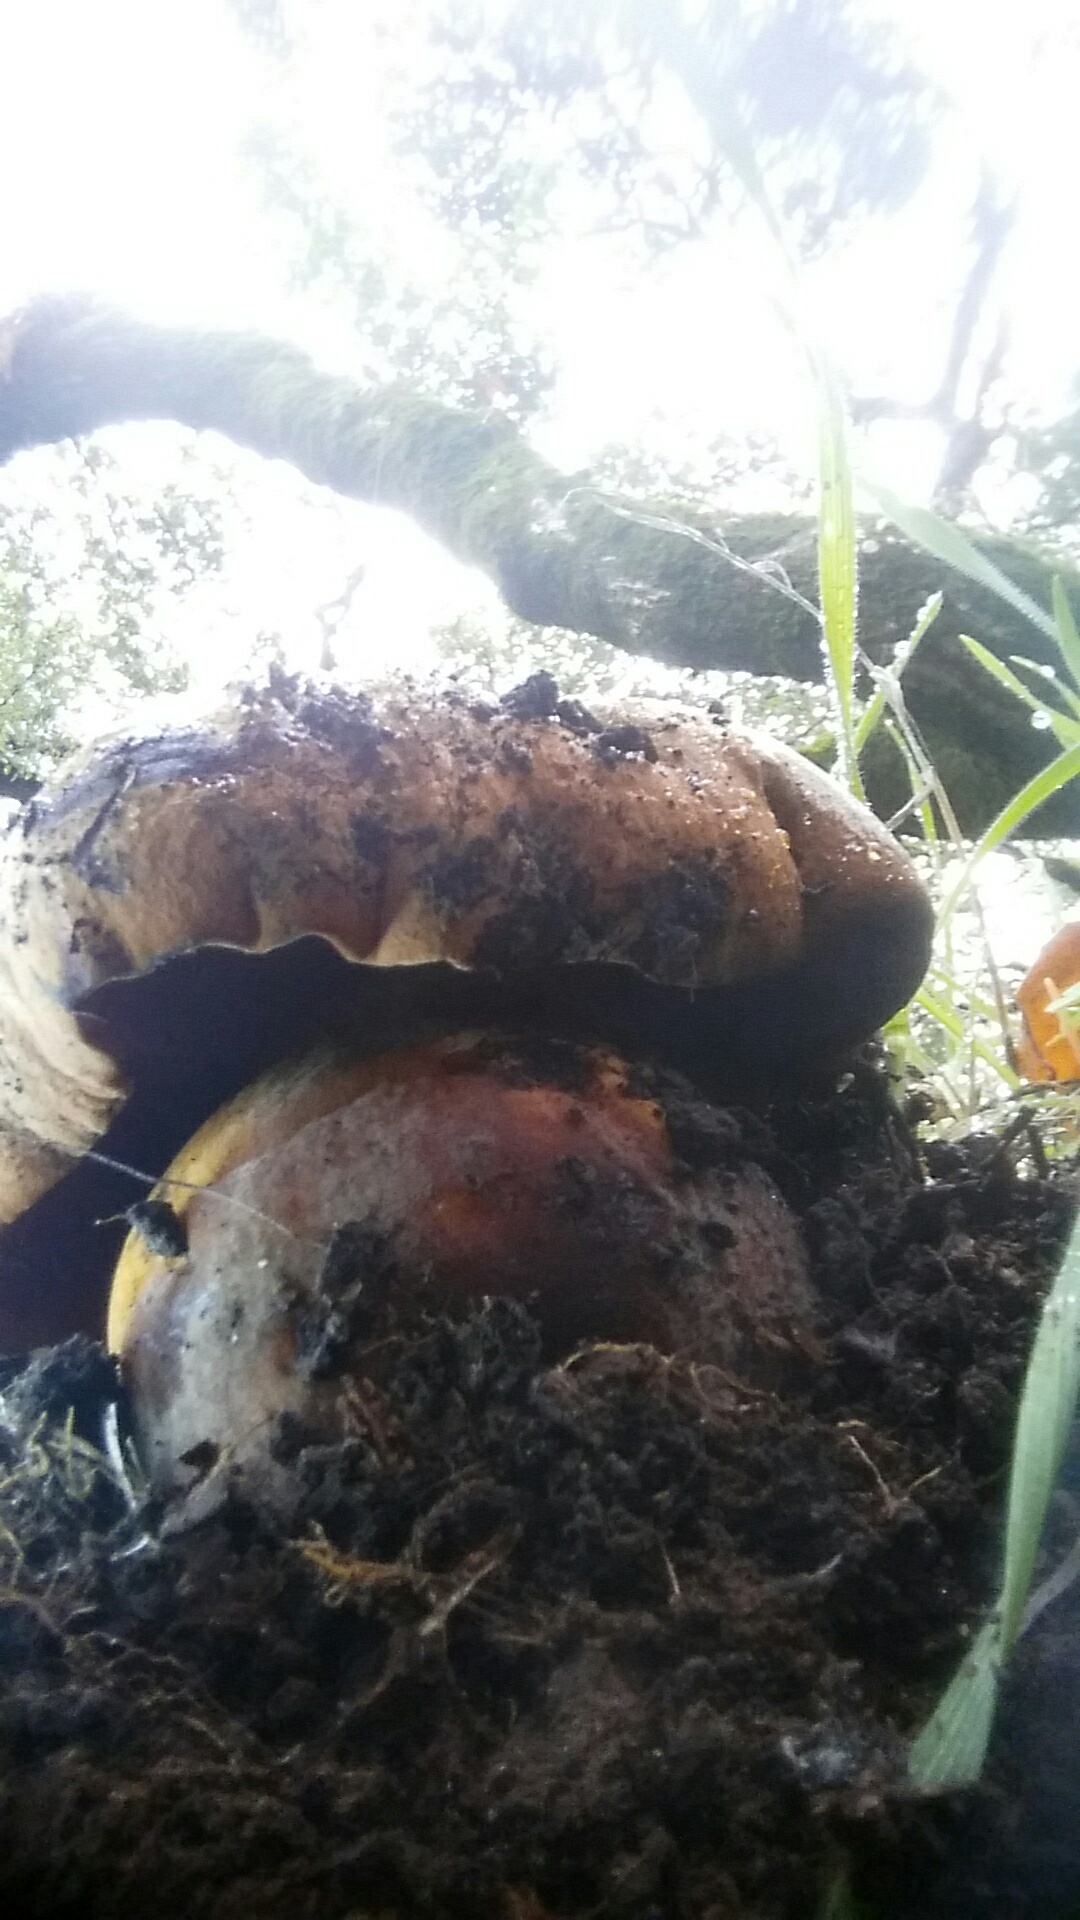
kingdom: Fungi
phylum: Basidiomycota
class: Agaricomycetes
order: Boletales
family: Boletaceae
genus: Rubroboletus
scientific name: Rubroboletus eastwoodiae
